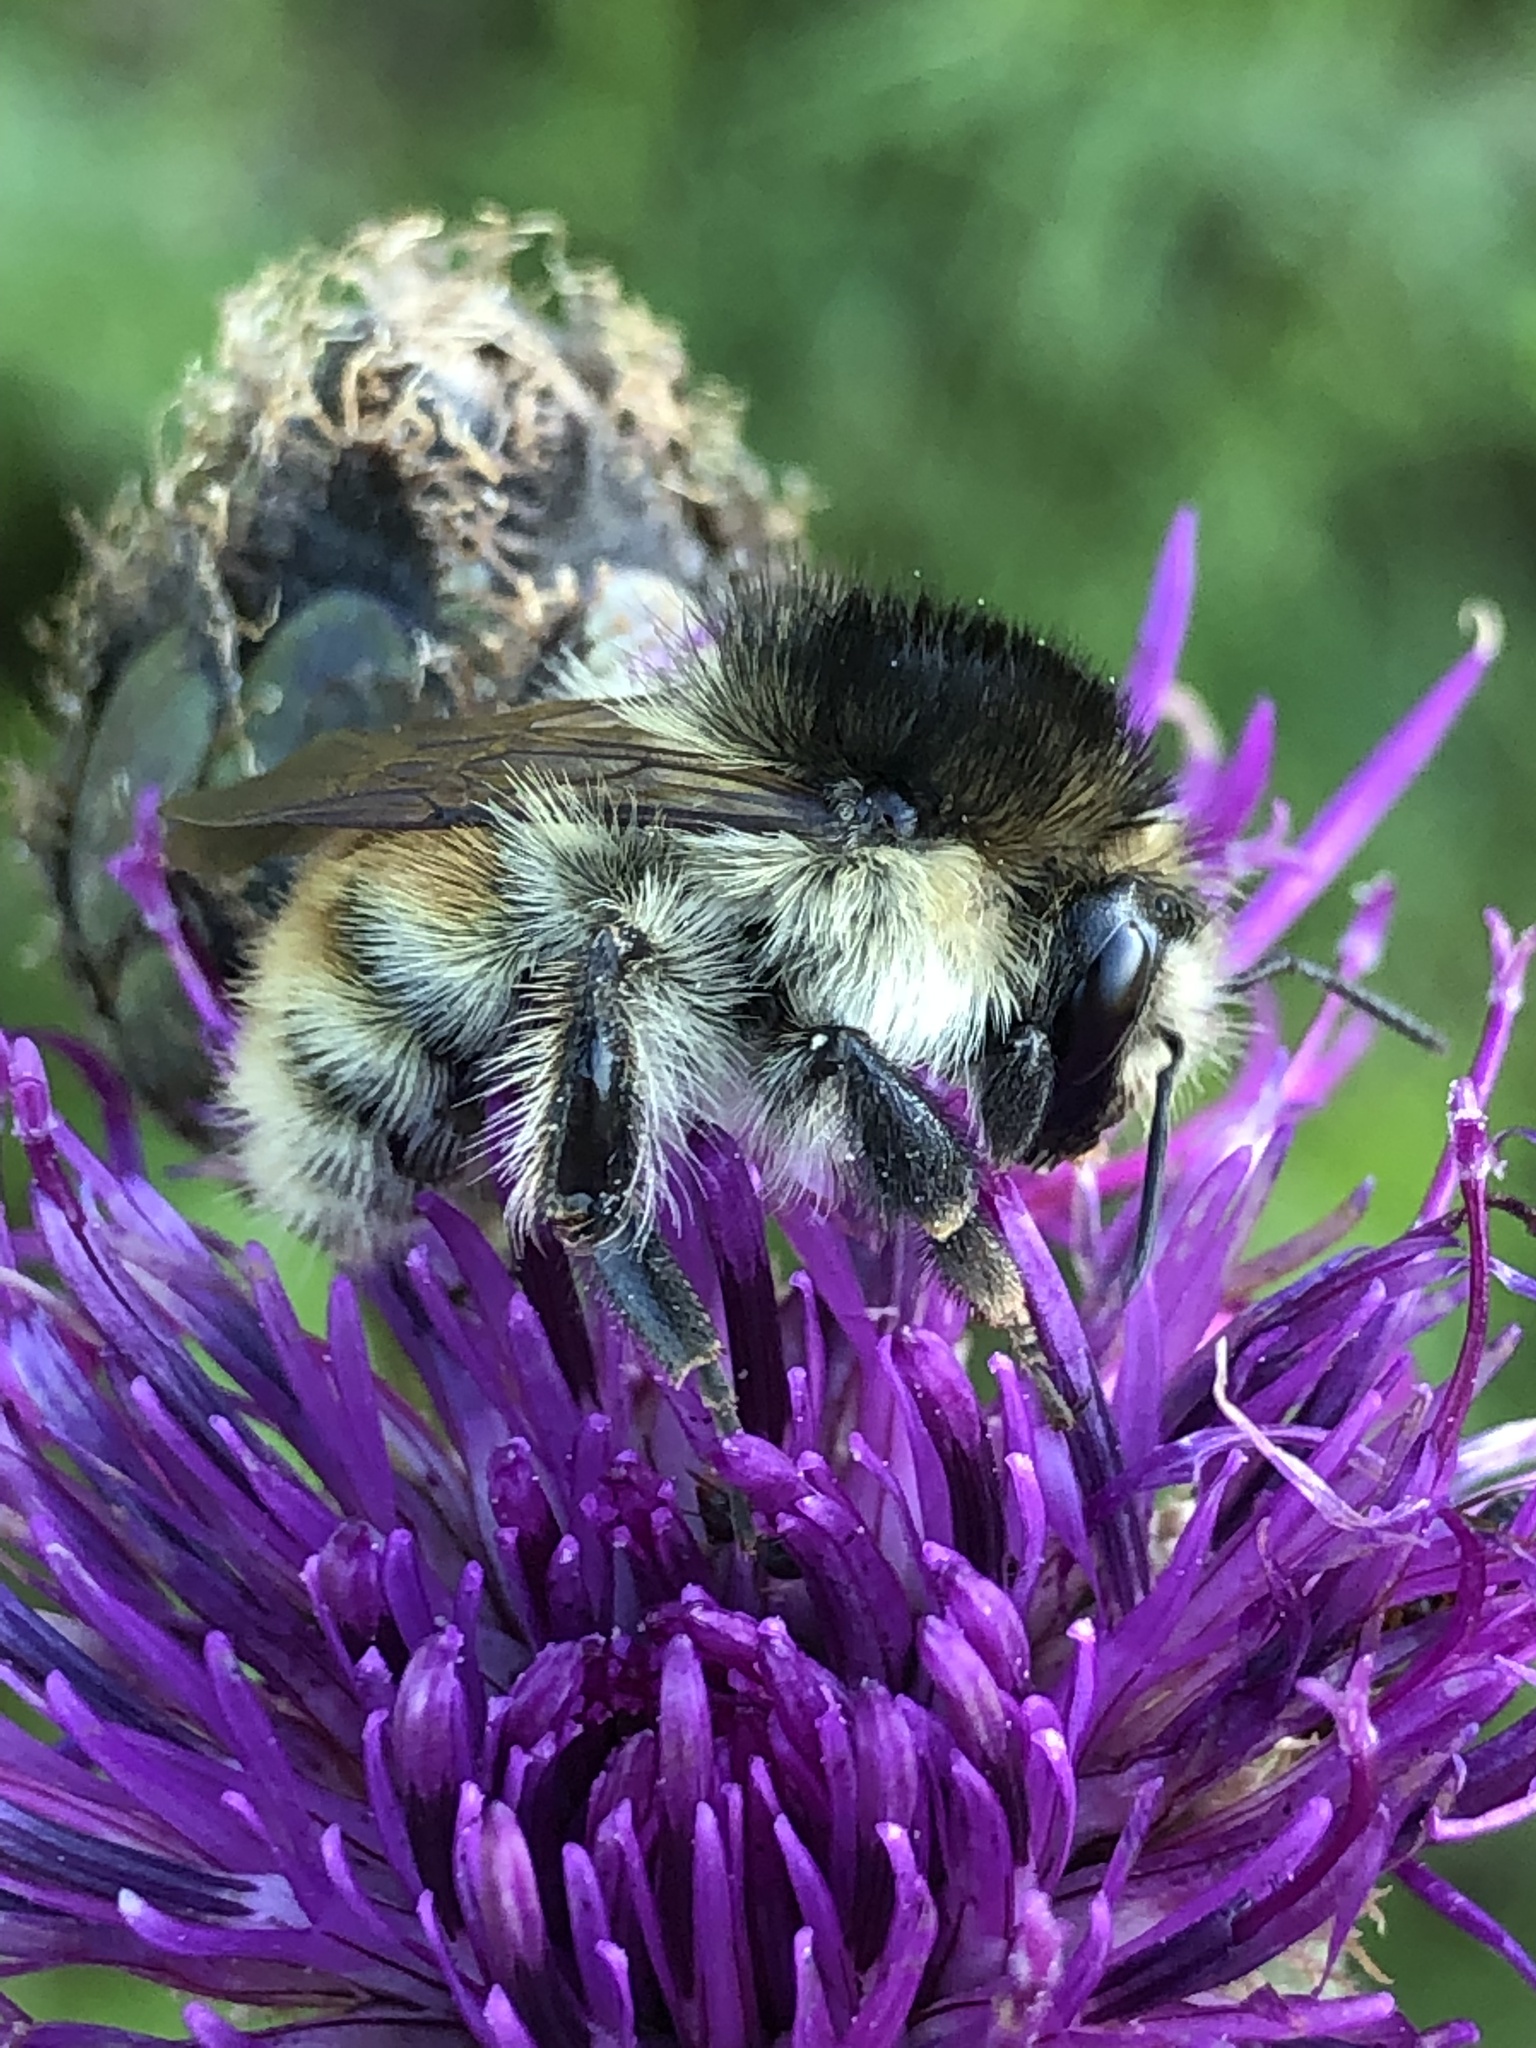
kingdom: Animalia
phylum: Arthropoda
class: Insecta
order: Hymenoptera
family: Apidae
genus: Bombus
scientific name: Bombus humilis
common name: Brown-banded carder-bee
